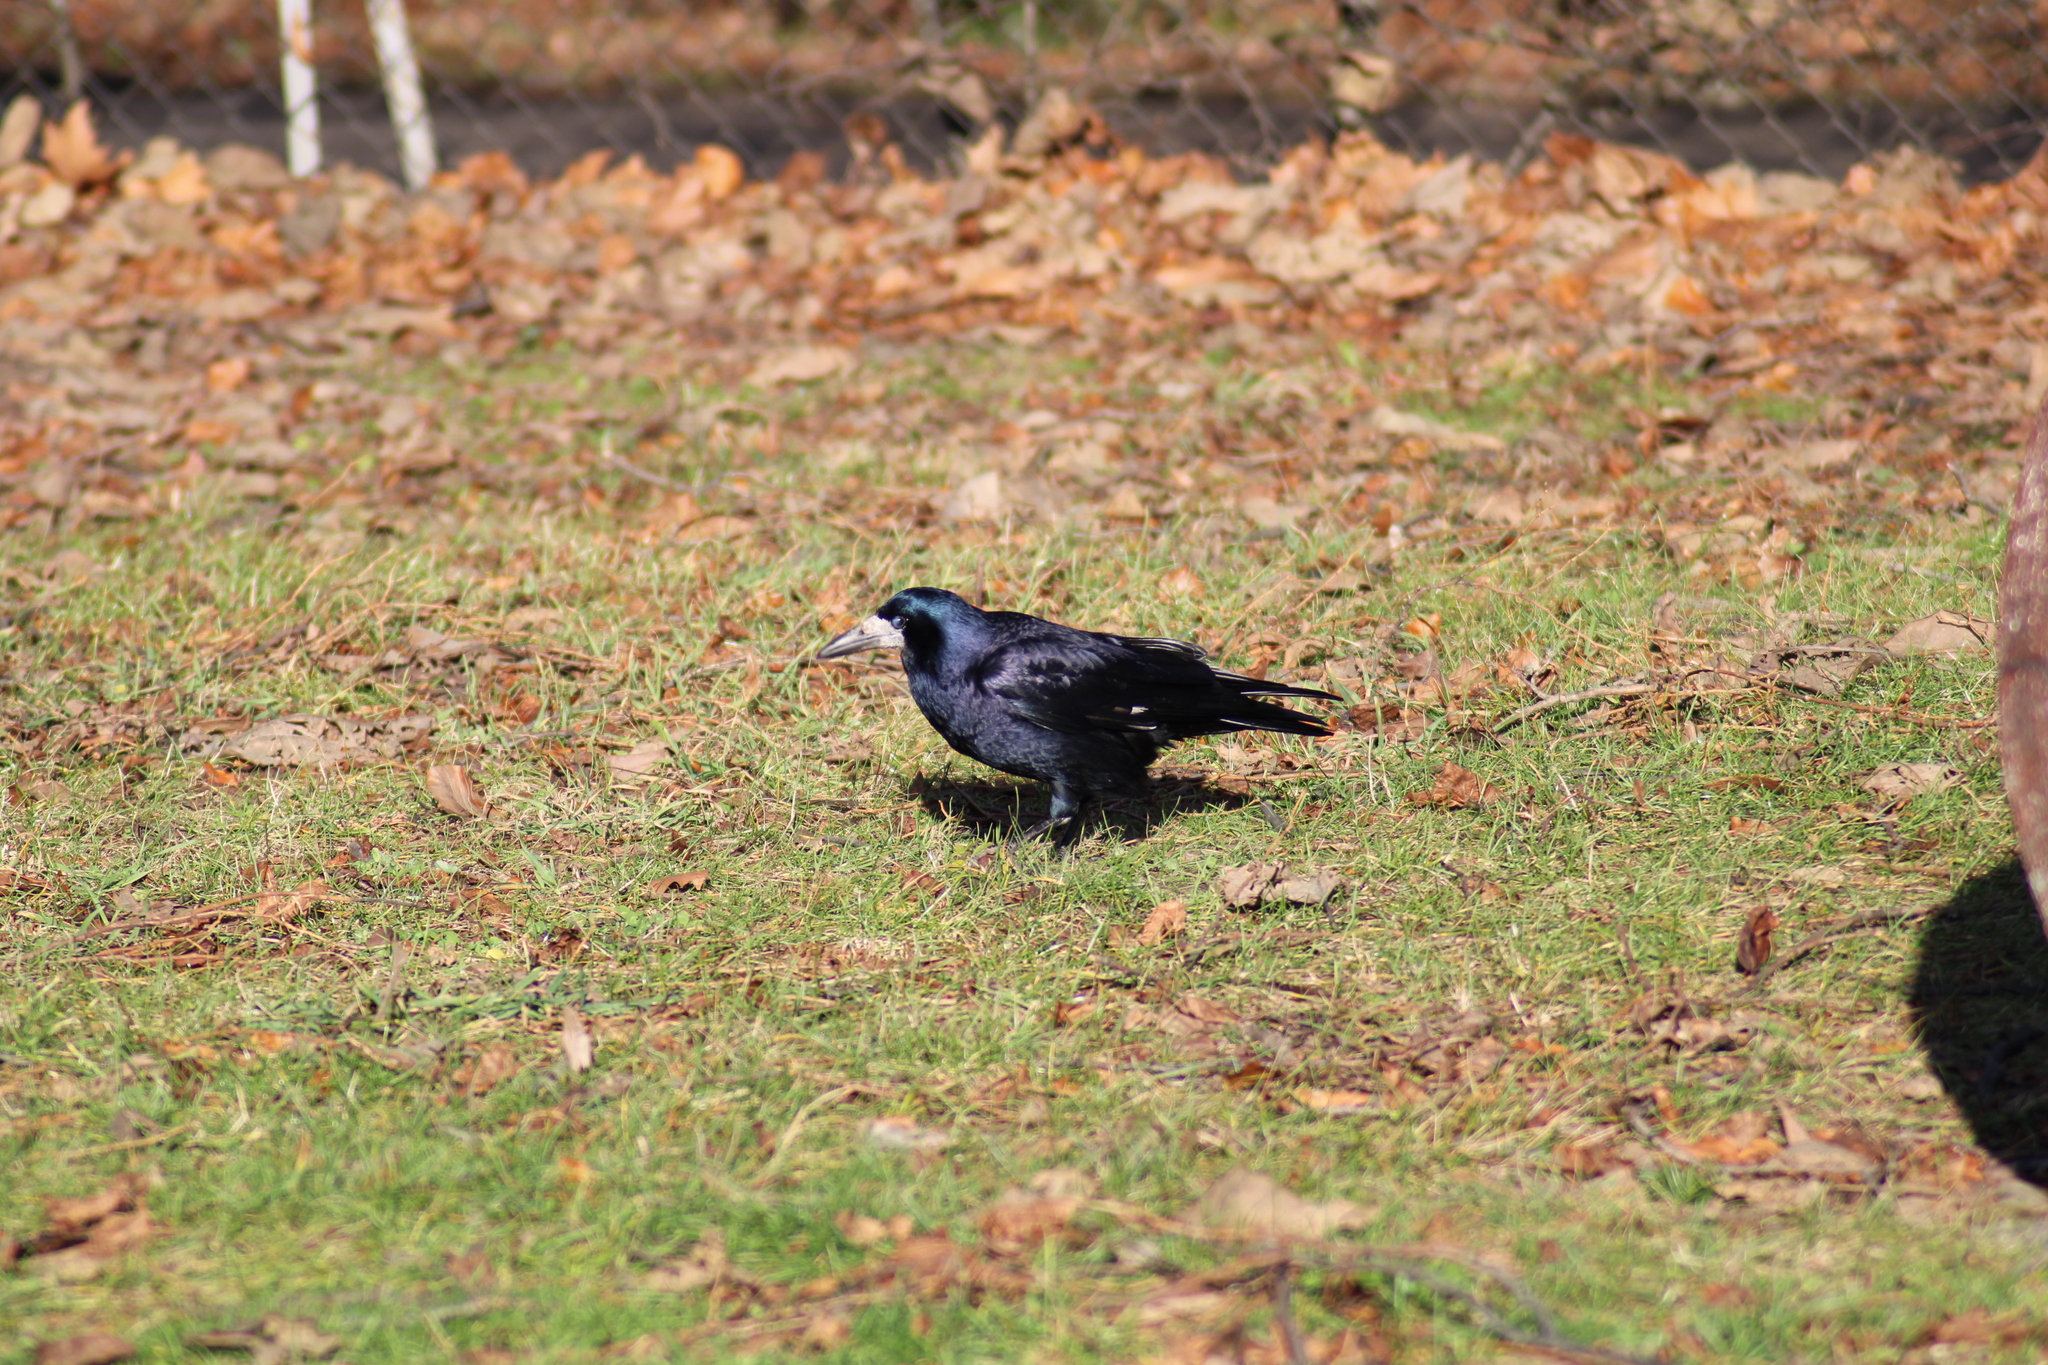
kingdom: Animalia
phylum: Chordata
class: Aves
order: Passeriformes
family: Corvidae
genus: Corvus
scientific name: Corvus frugilegus
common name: Rook
